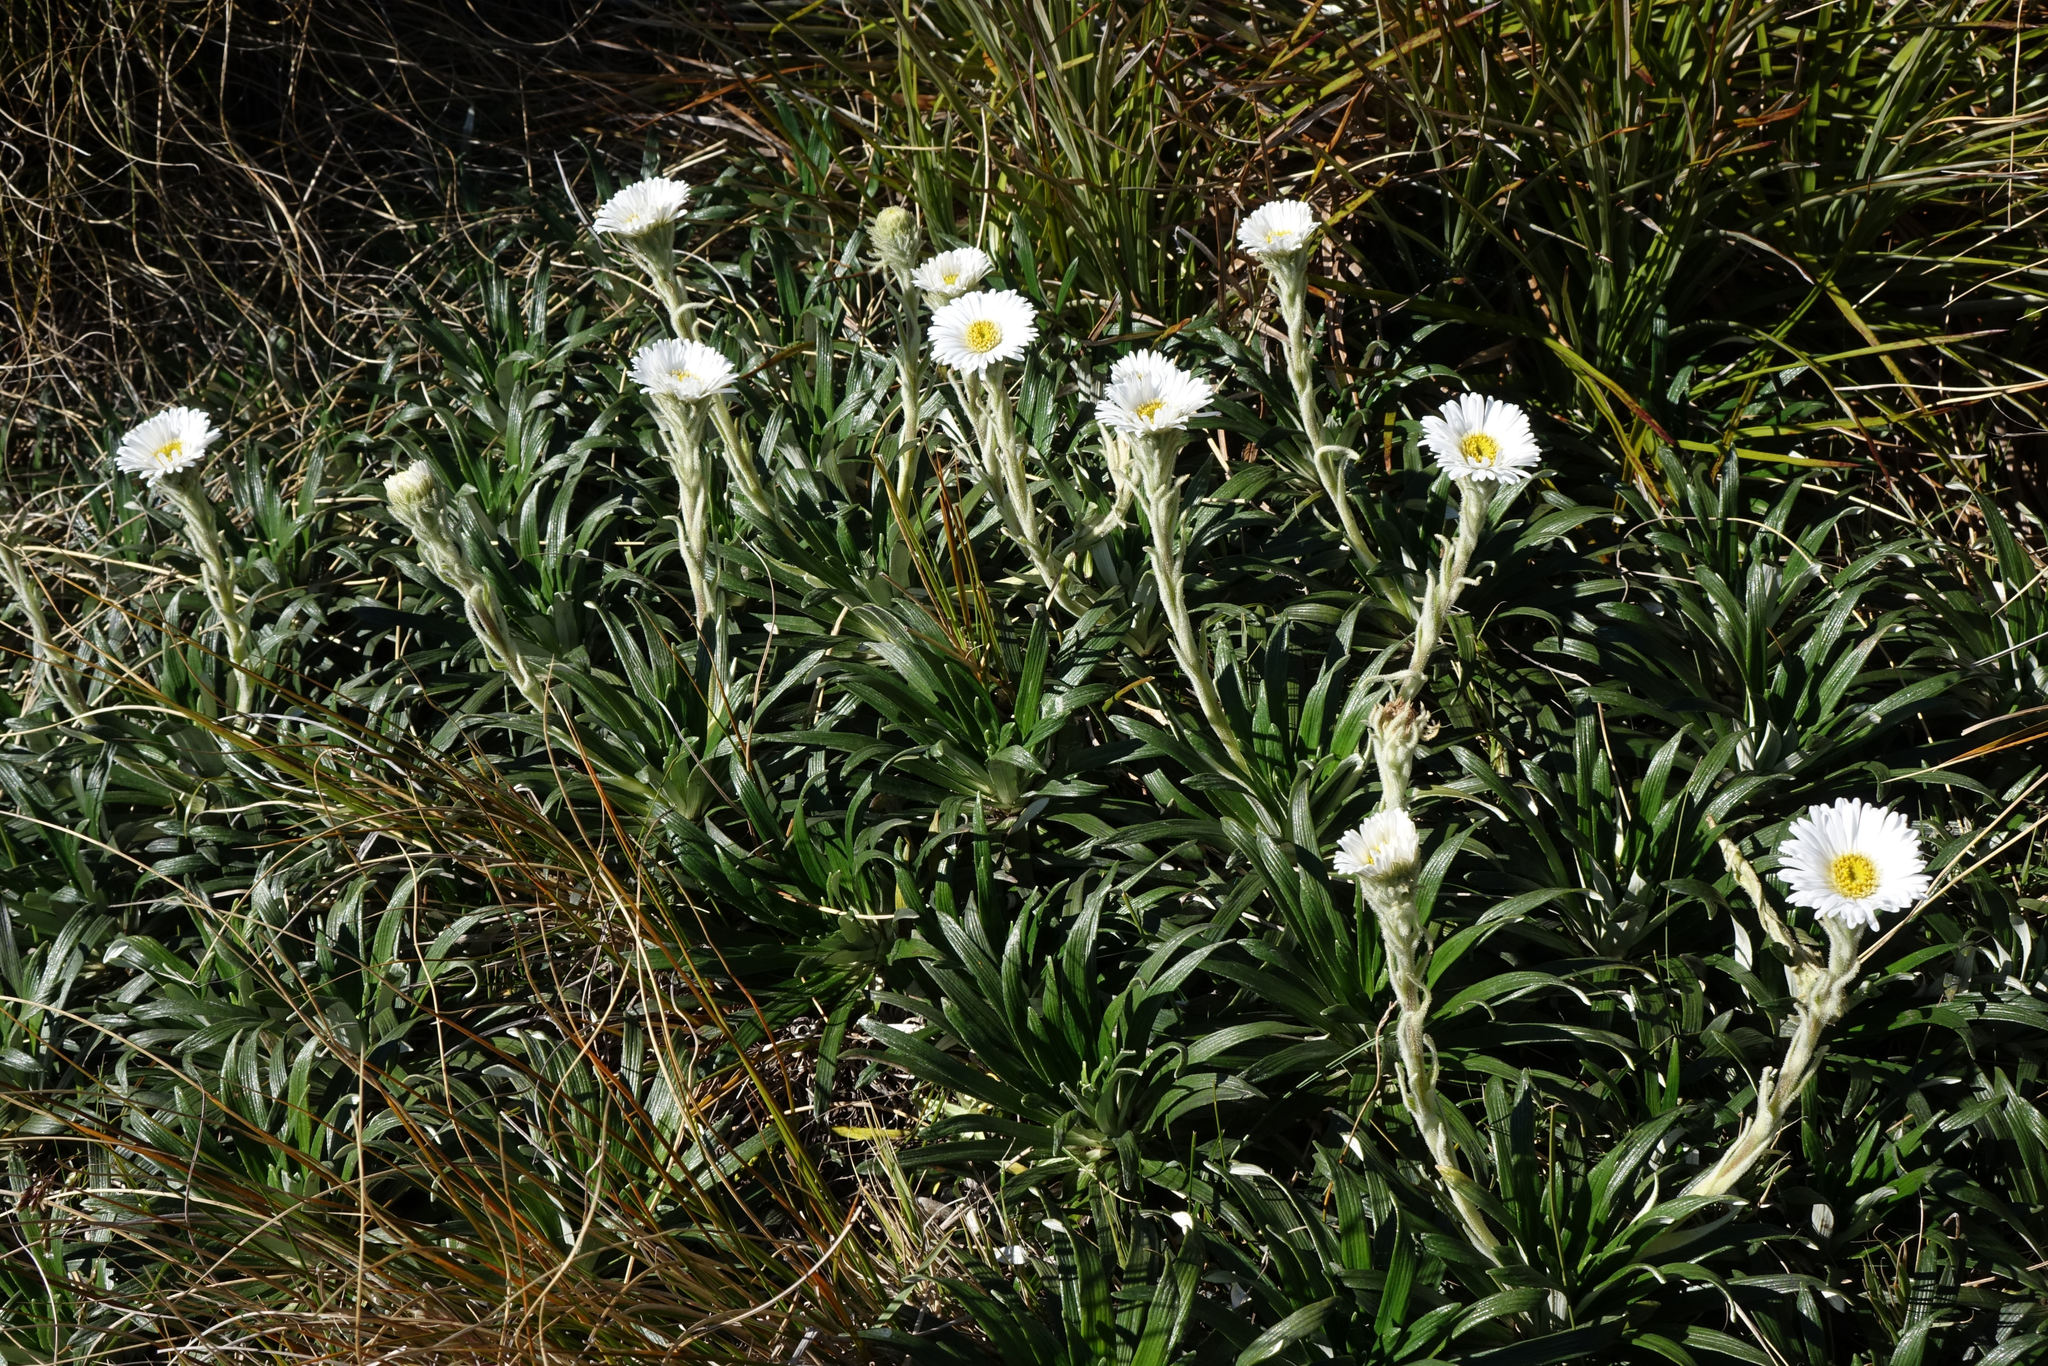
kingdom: Plantae
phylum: Tracheophyta
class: Magnoliopsida
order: Asterales
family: Asteraceae
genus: Celmisia
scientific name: Celmisia viscosa
